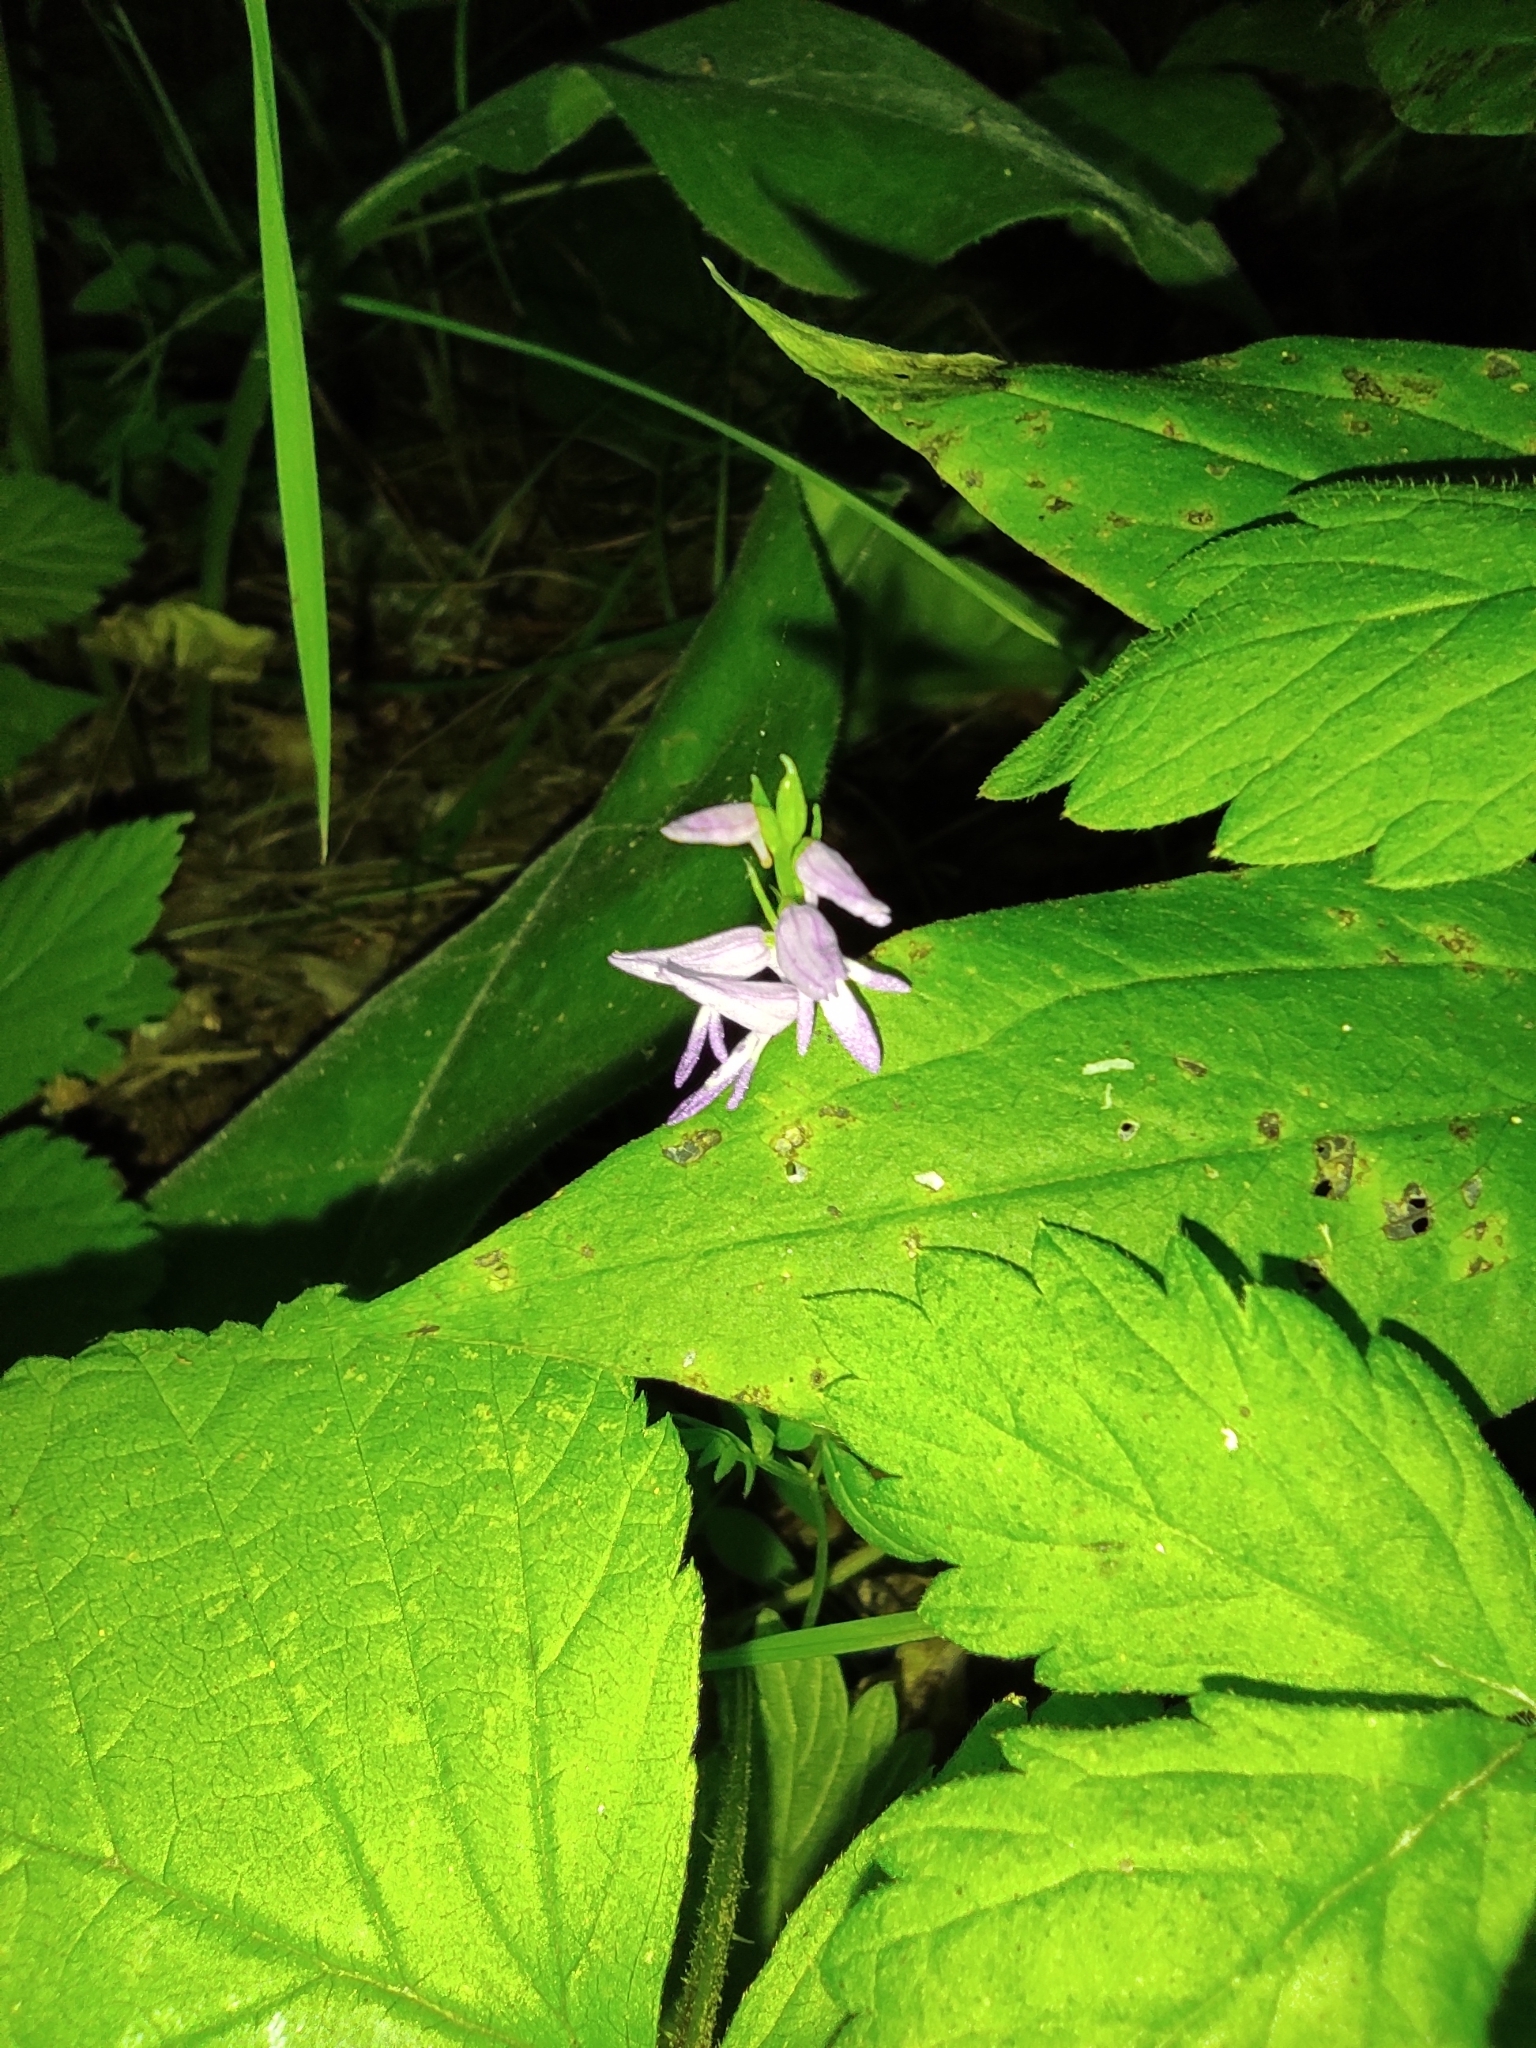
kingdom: Plantae
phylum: Tracheophyta
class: Liliopsida
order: Asparagales
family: Orchidaceae
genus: Hemipilia
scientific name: Hemipilia cucullata
